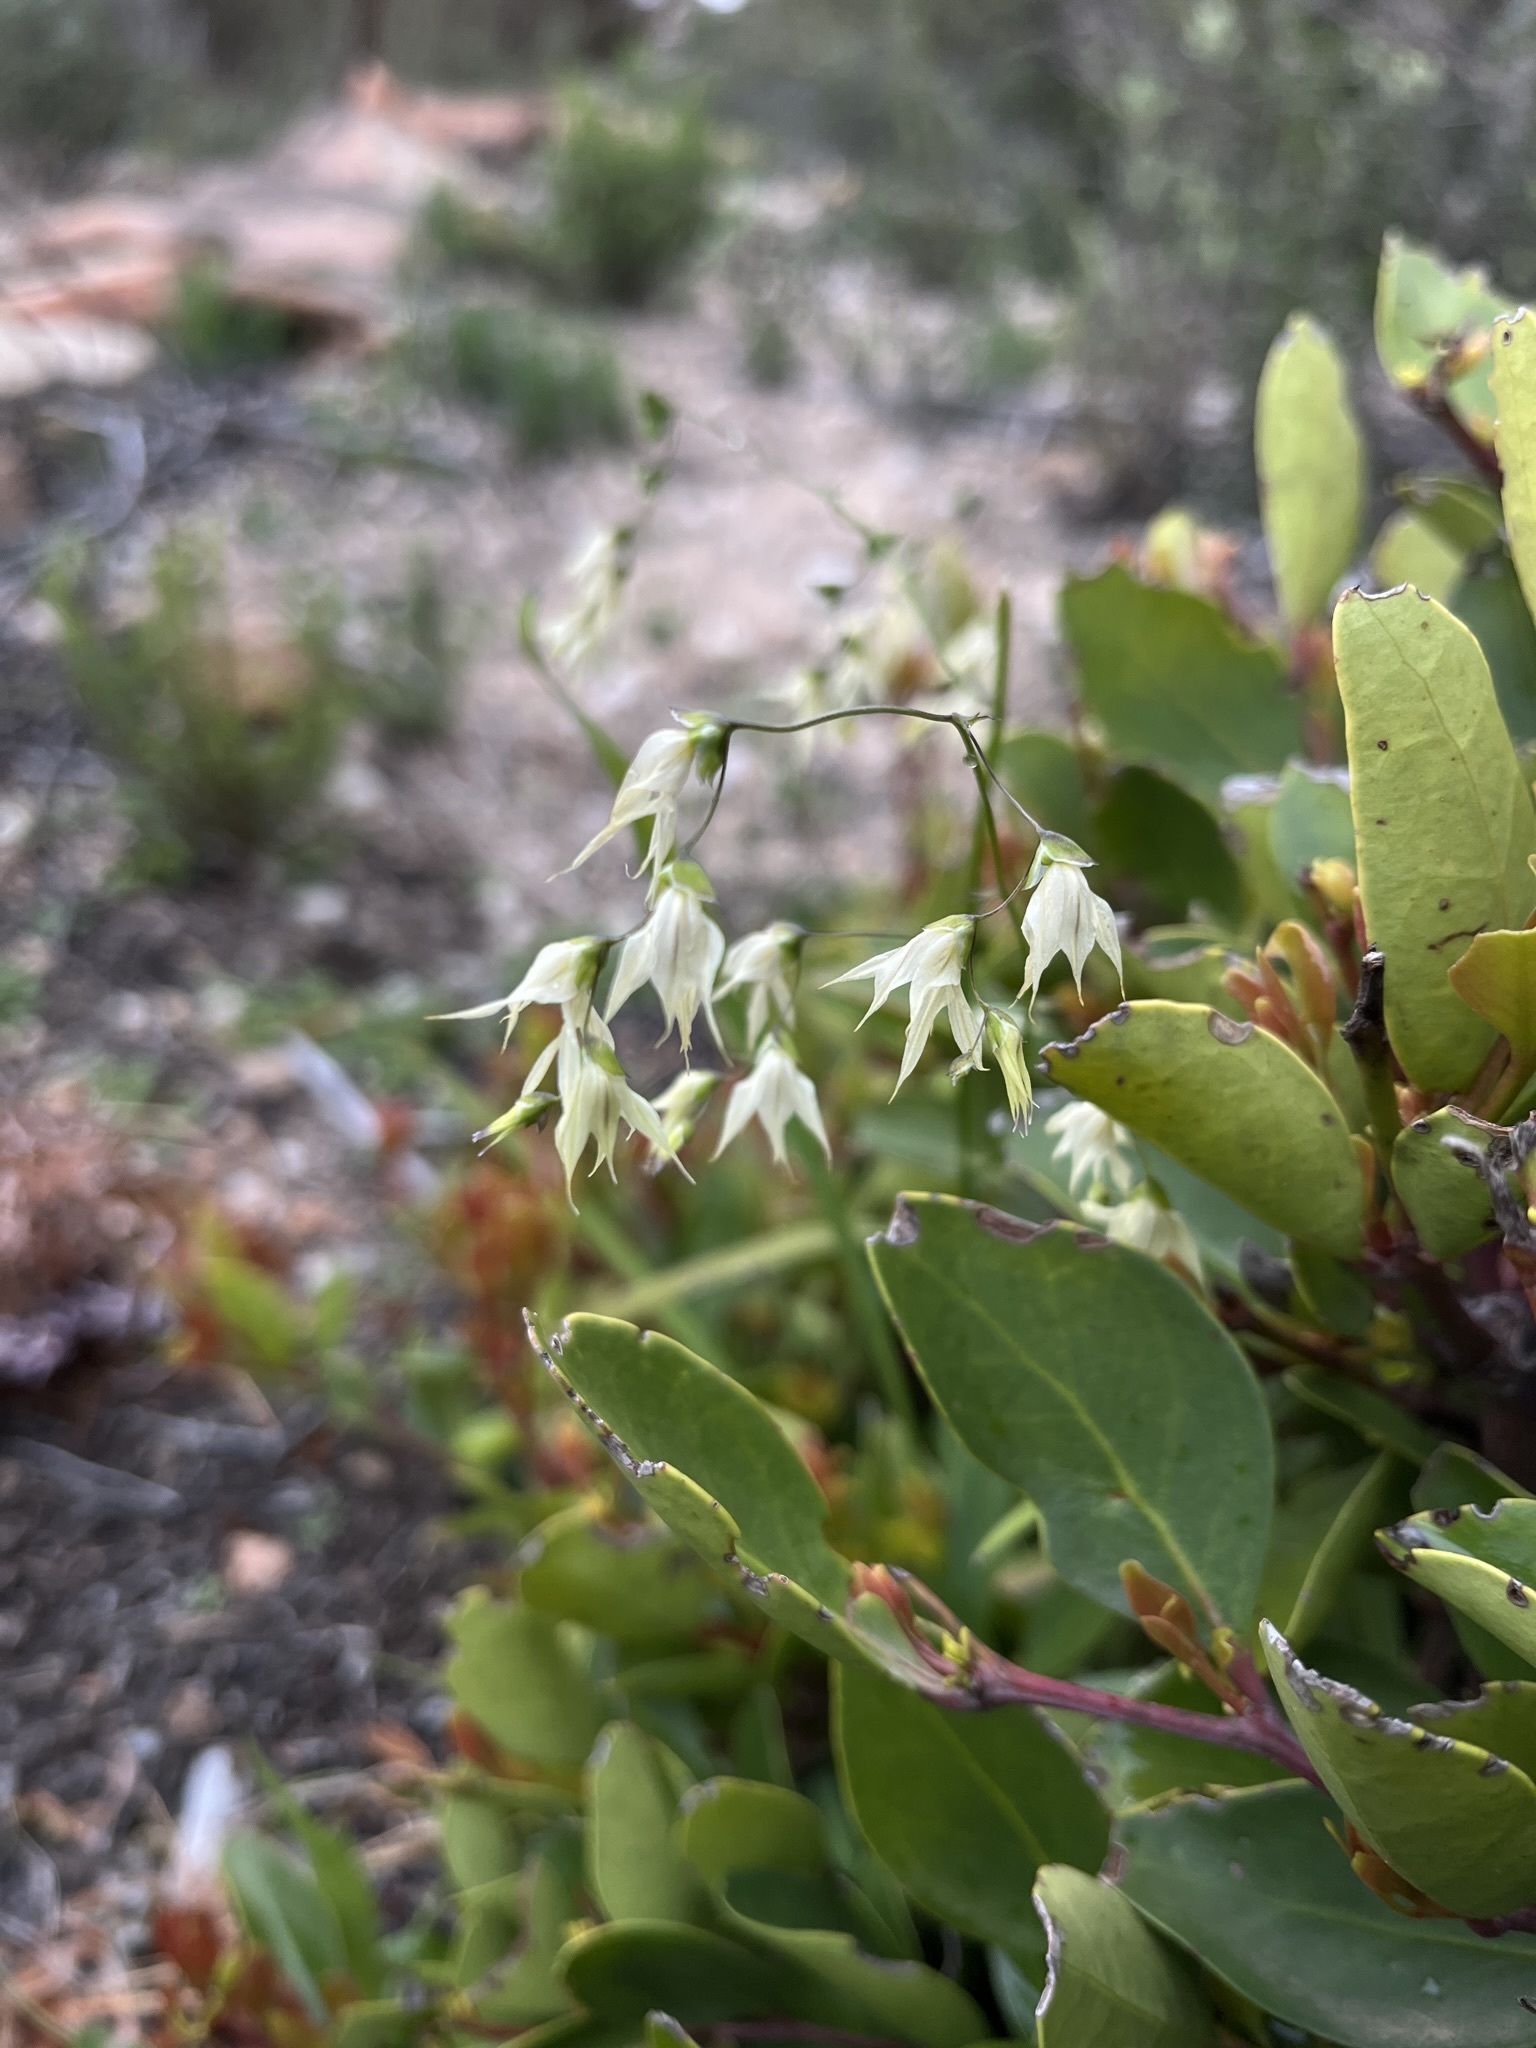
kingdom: Plantae
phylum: Tracheophyta
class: Liliopsida
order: Asparagales
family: Iridaceae
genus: Melasphaerula
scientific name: Melasphaerula graminea
